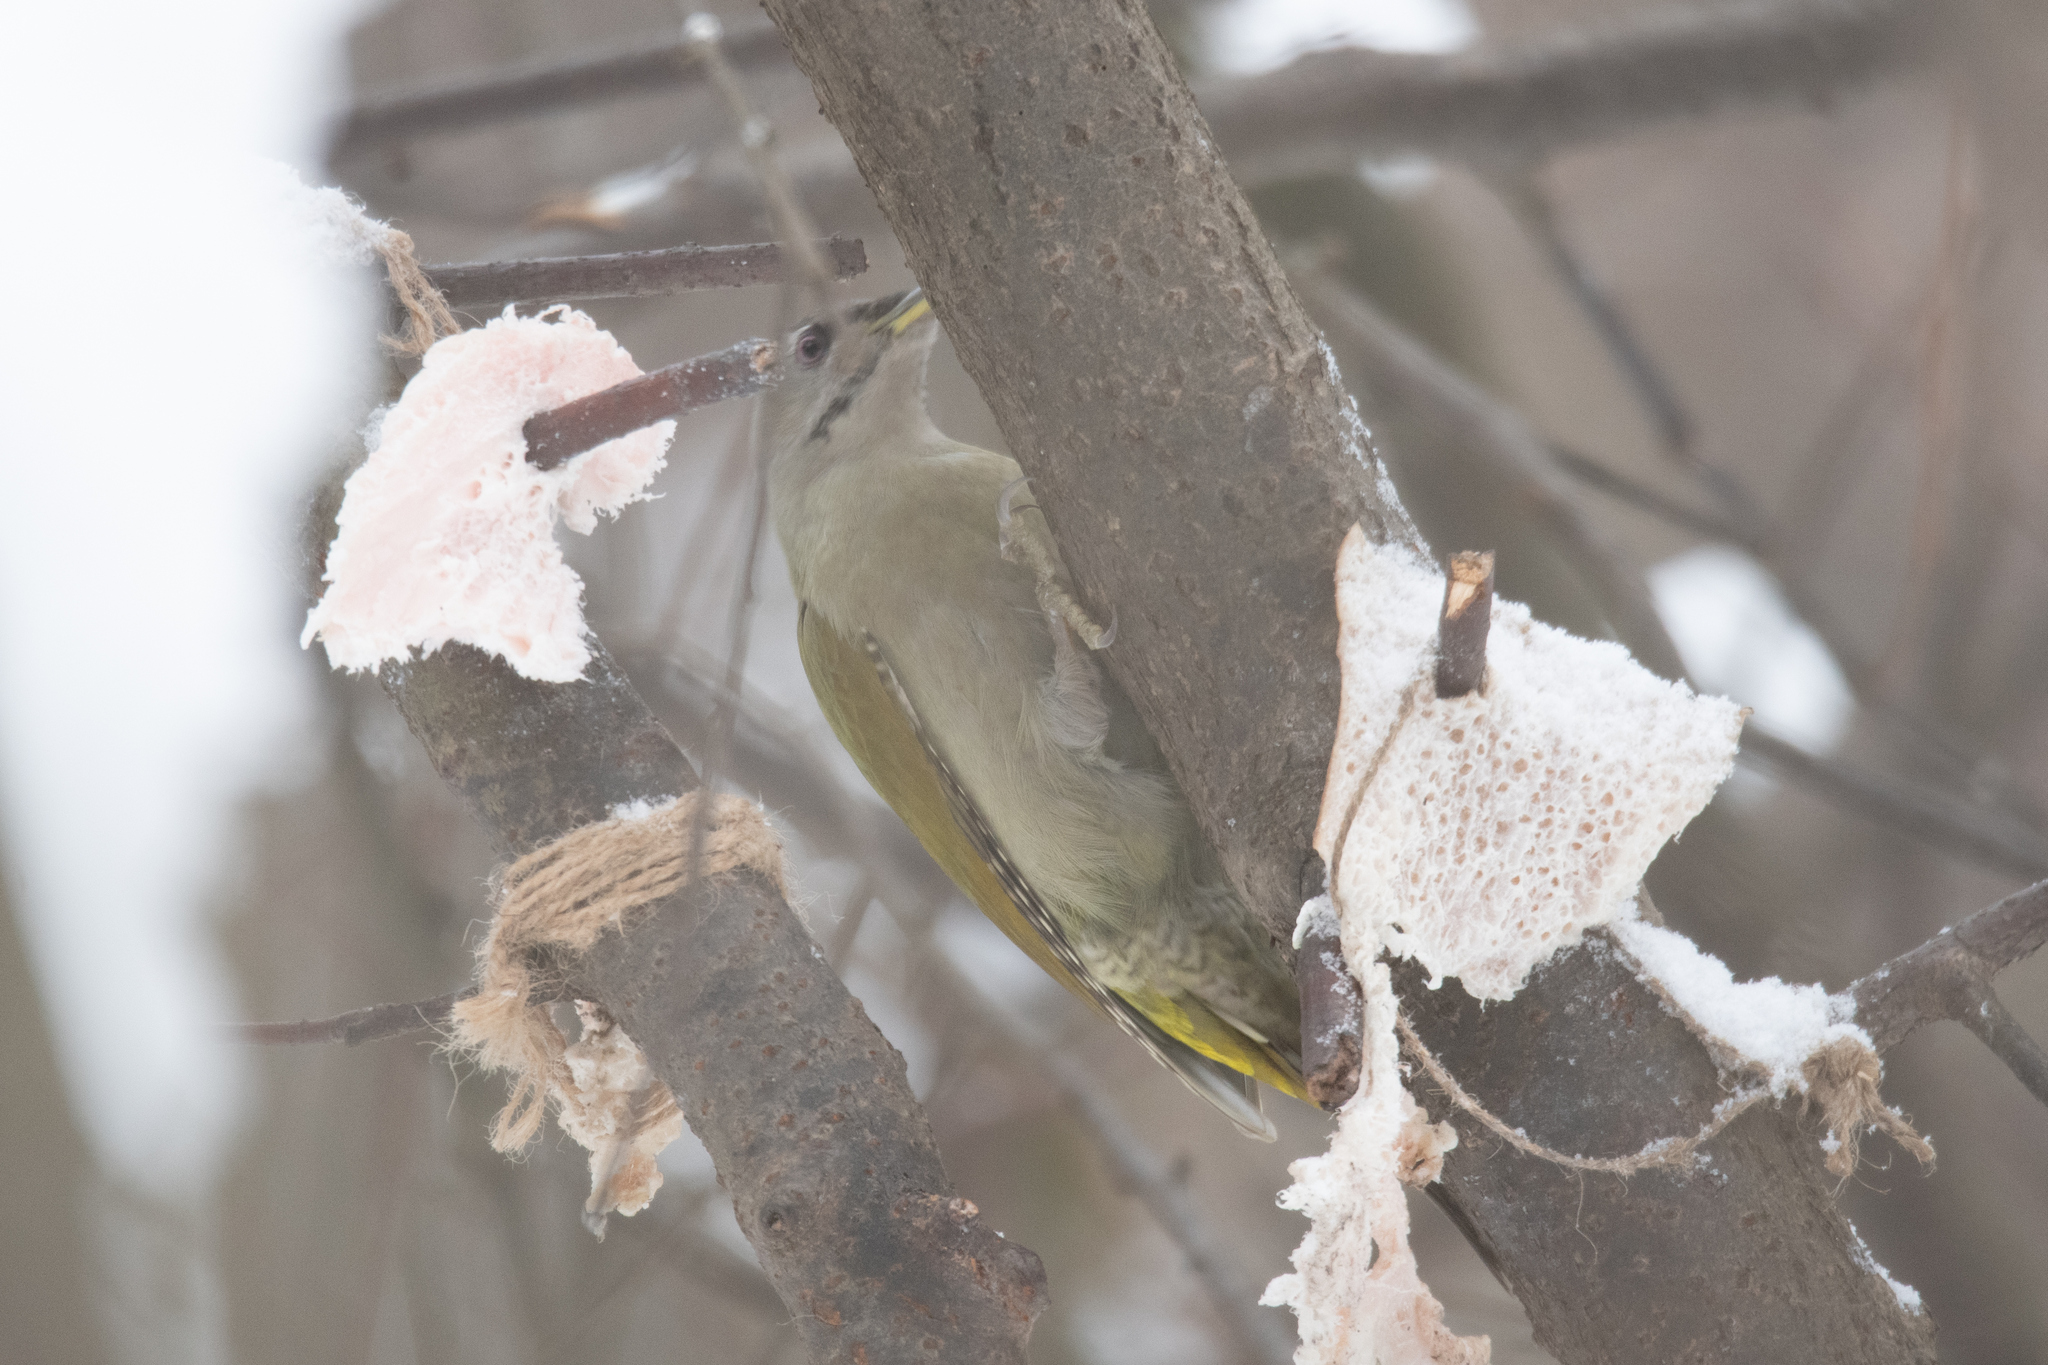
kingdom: Animalia
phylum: Chordata
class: Aves
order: Piciformes
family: Picidae
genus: Picus
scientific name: Picus canus
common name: Grey-headed woodpecker
